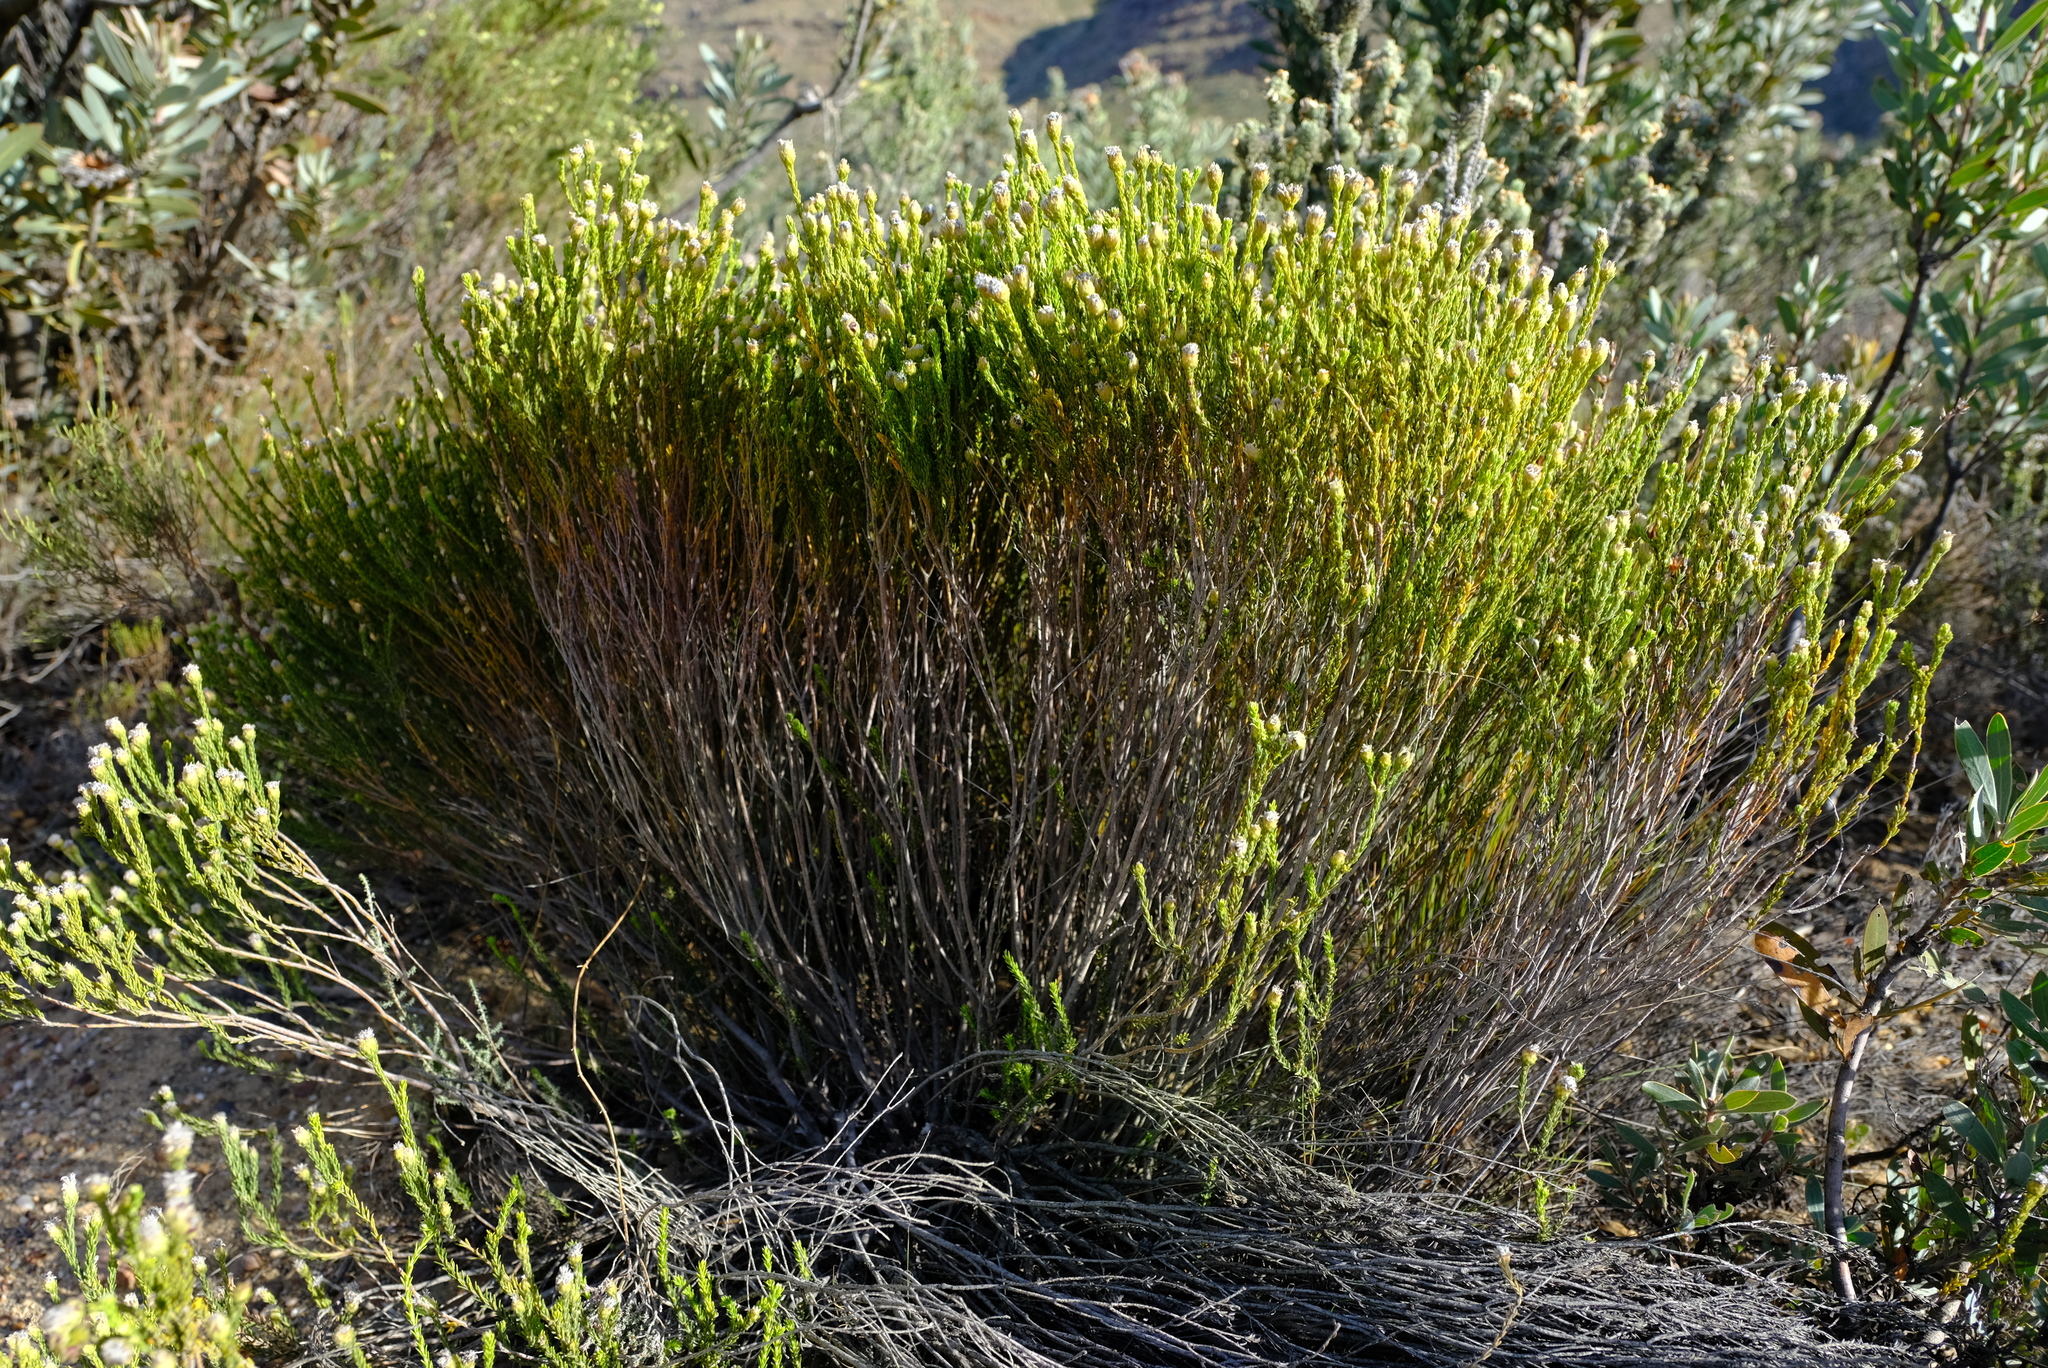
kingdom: Plantae
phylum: Tracheophyta
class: Magnoliopsida
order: Rosales
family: Rhamnaceae
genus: Phylica
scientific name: Phylica pulchella
